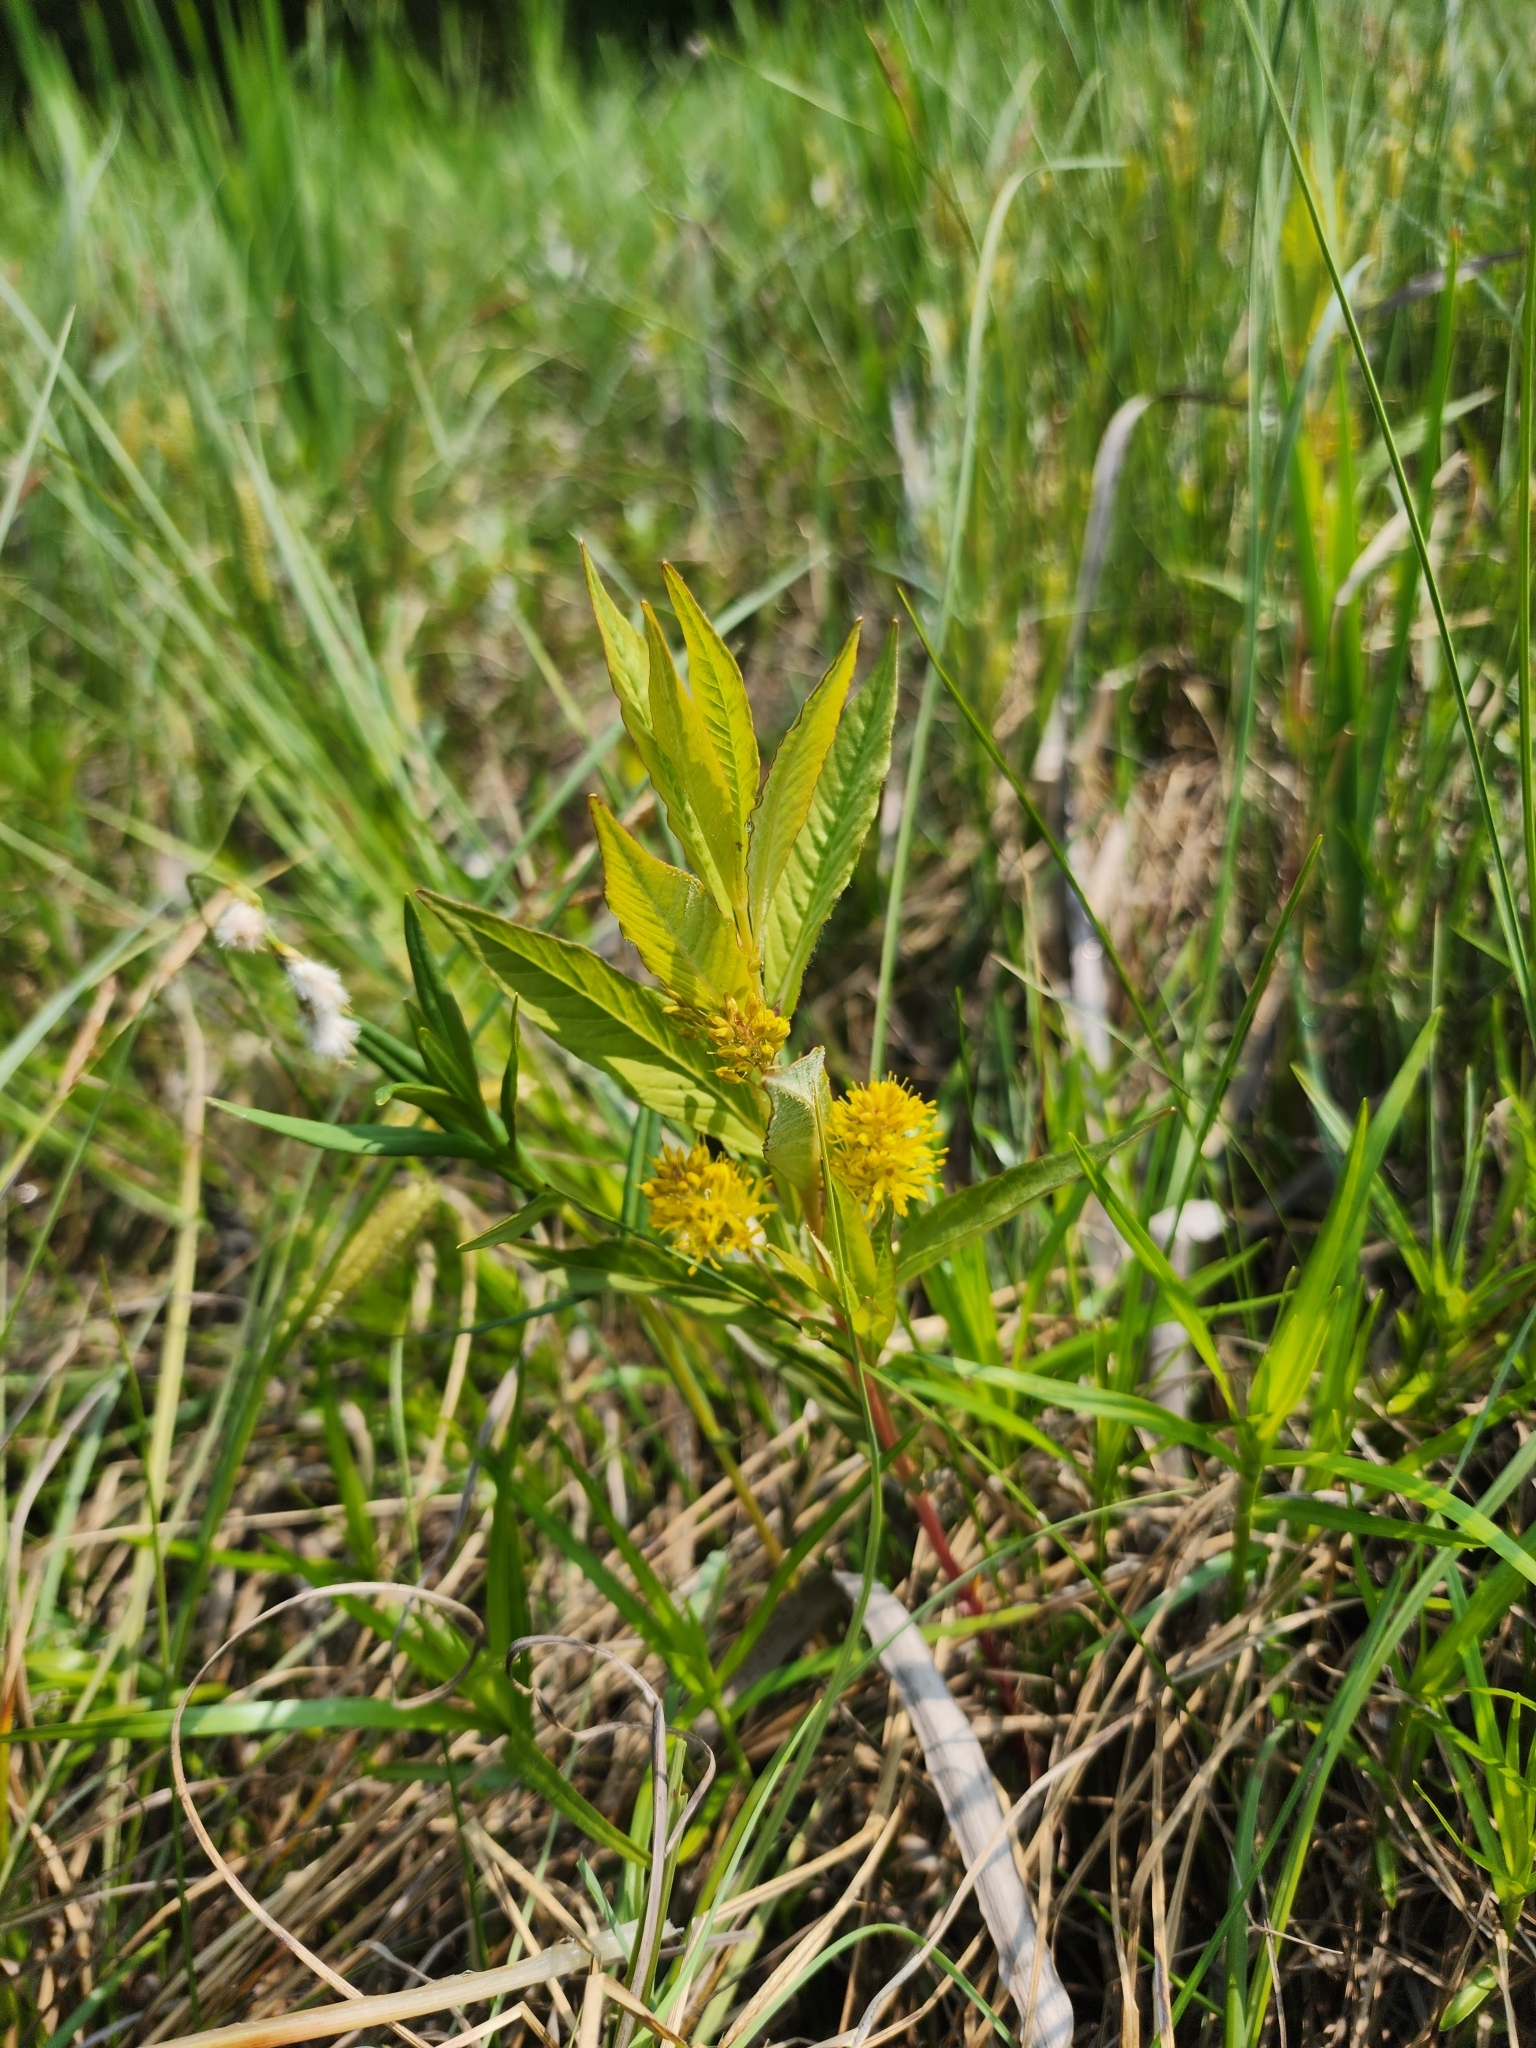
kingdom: Plantae
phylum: Tracheophyta
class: Magnoliopsida
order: Ericales
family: Primulaceae
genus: Lysimachia
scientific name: Lysimachia thyrsiflora
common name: Tufted loosestrife
